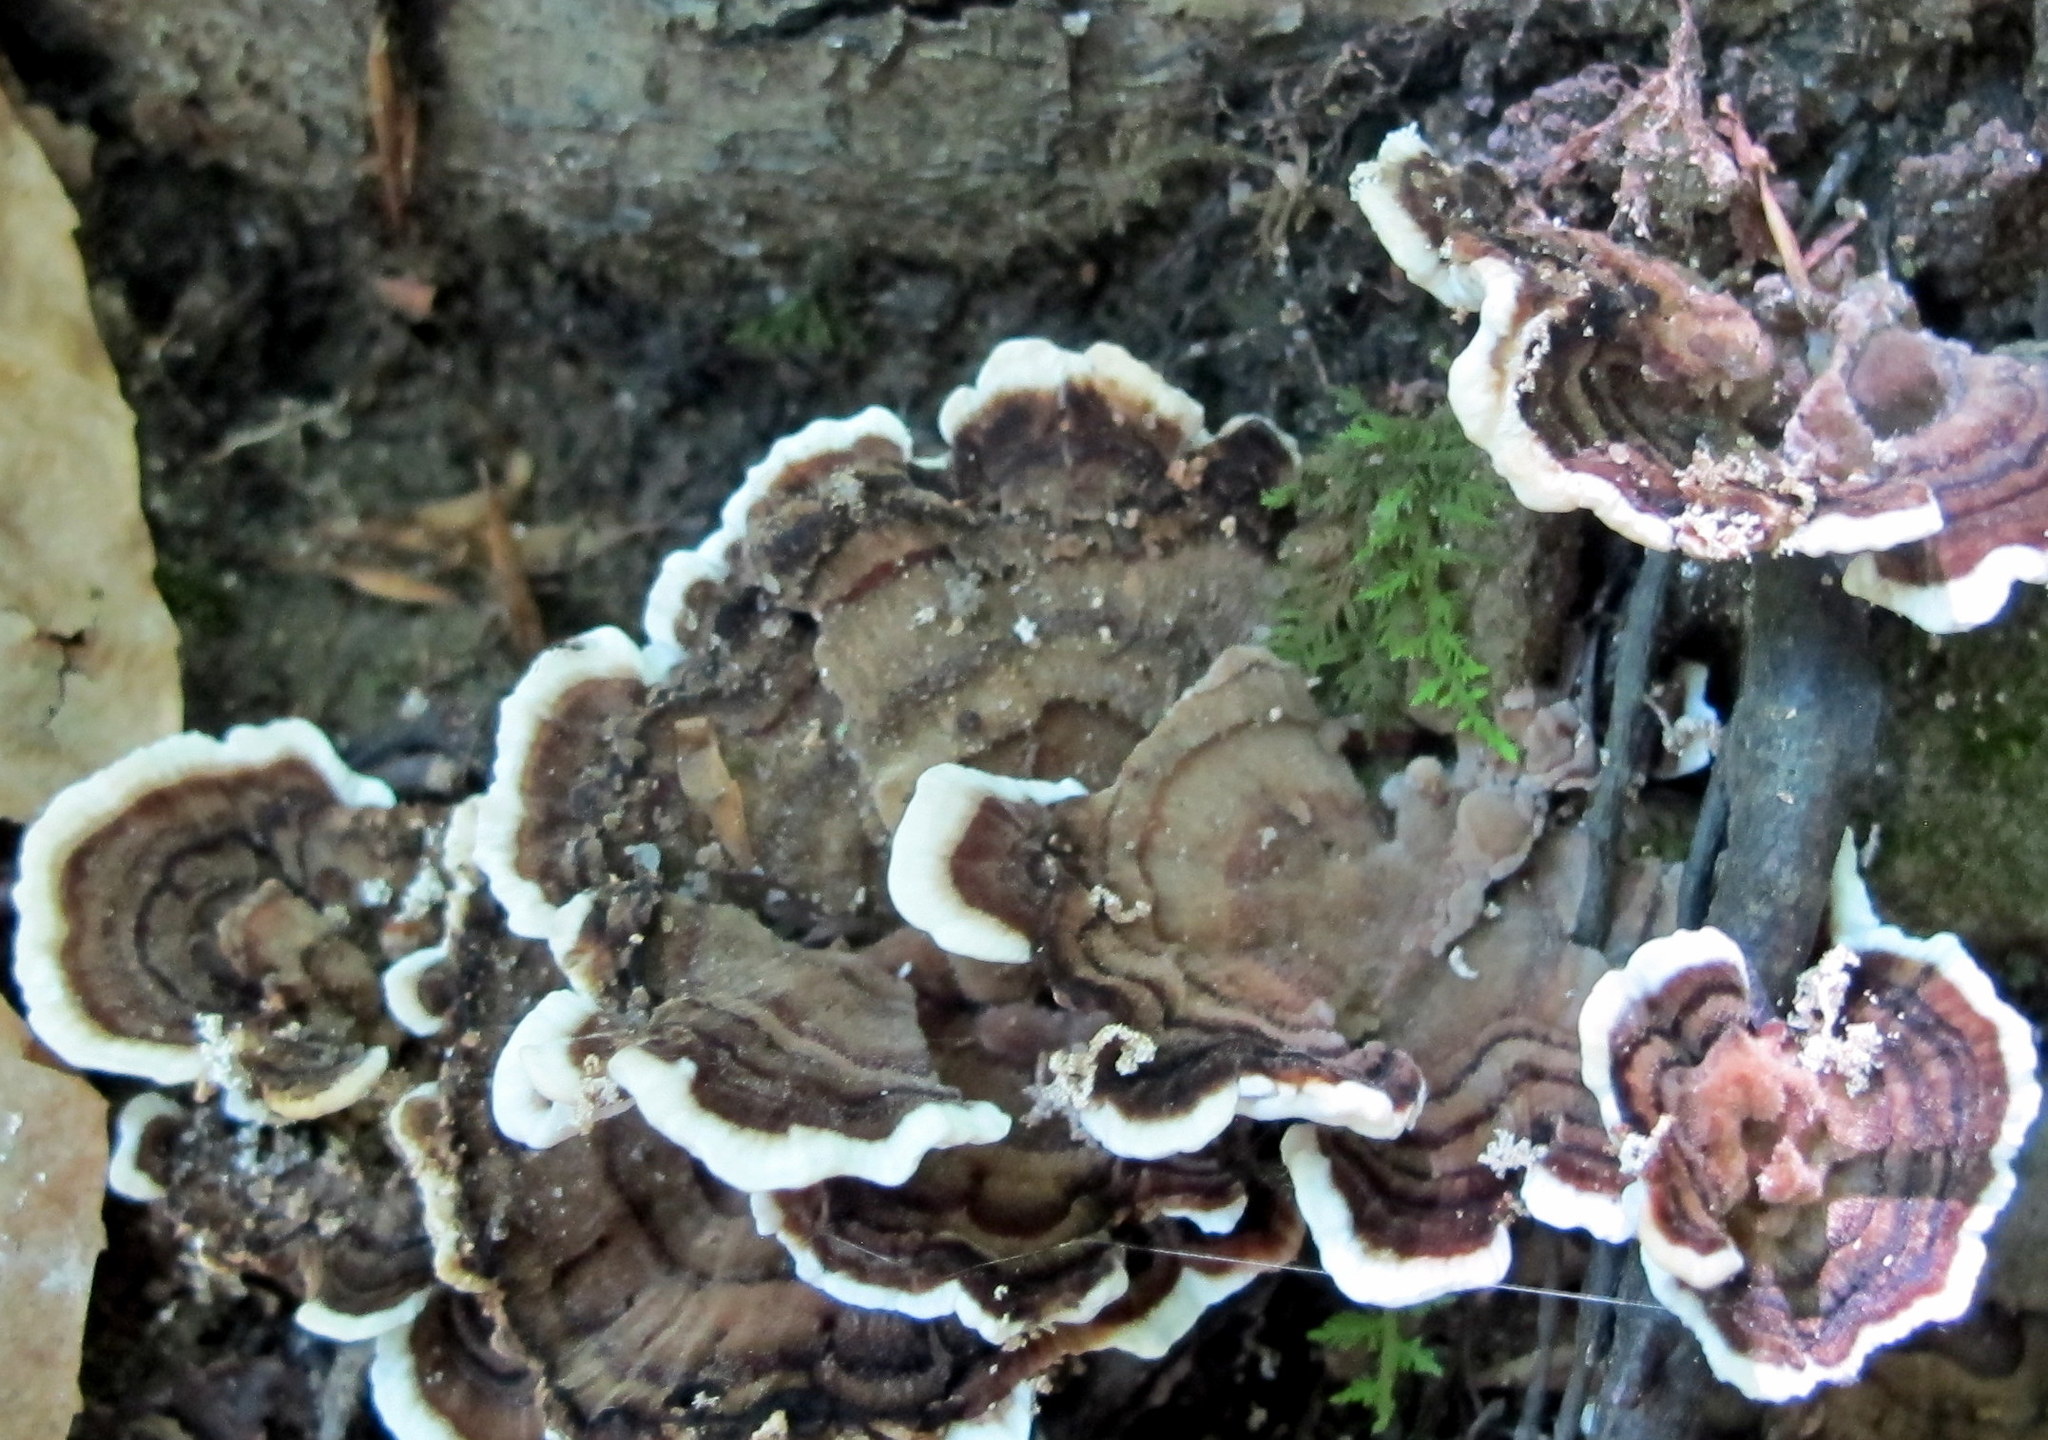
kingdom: Fungi
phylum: Basidiomycota
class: Agaricomycetes
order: Polyporales
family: Polyporaceae
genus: Trametes
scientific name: Trametes versicolor
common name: Turkeytail
